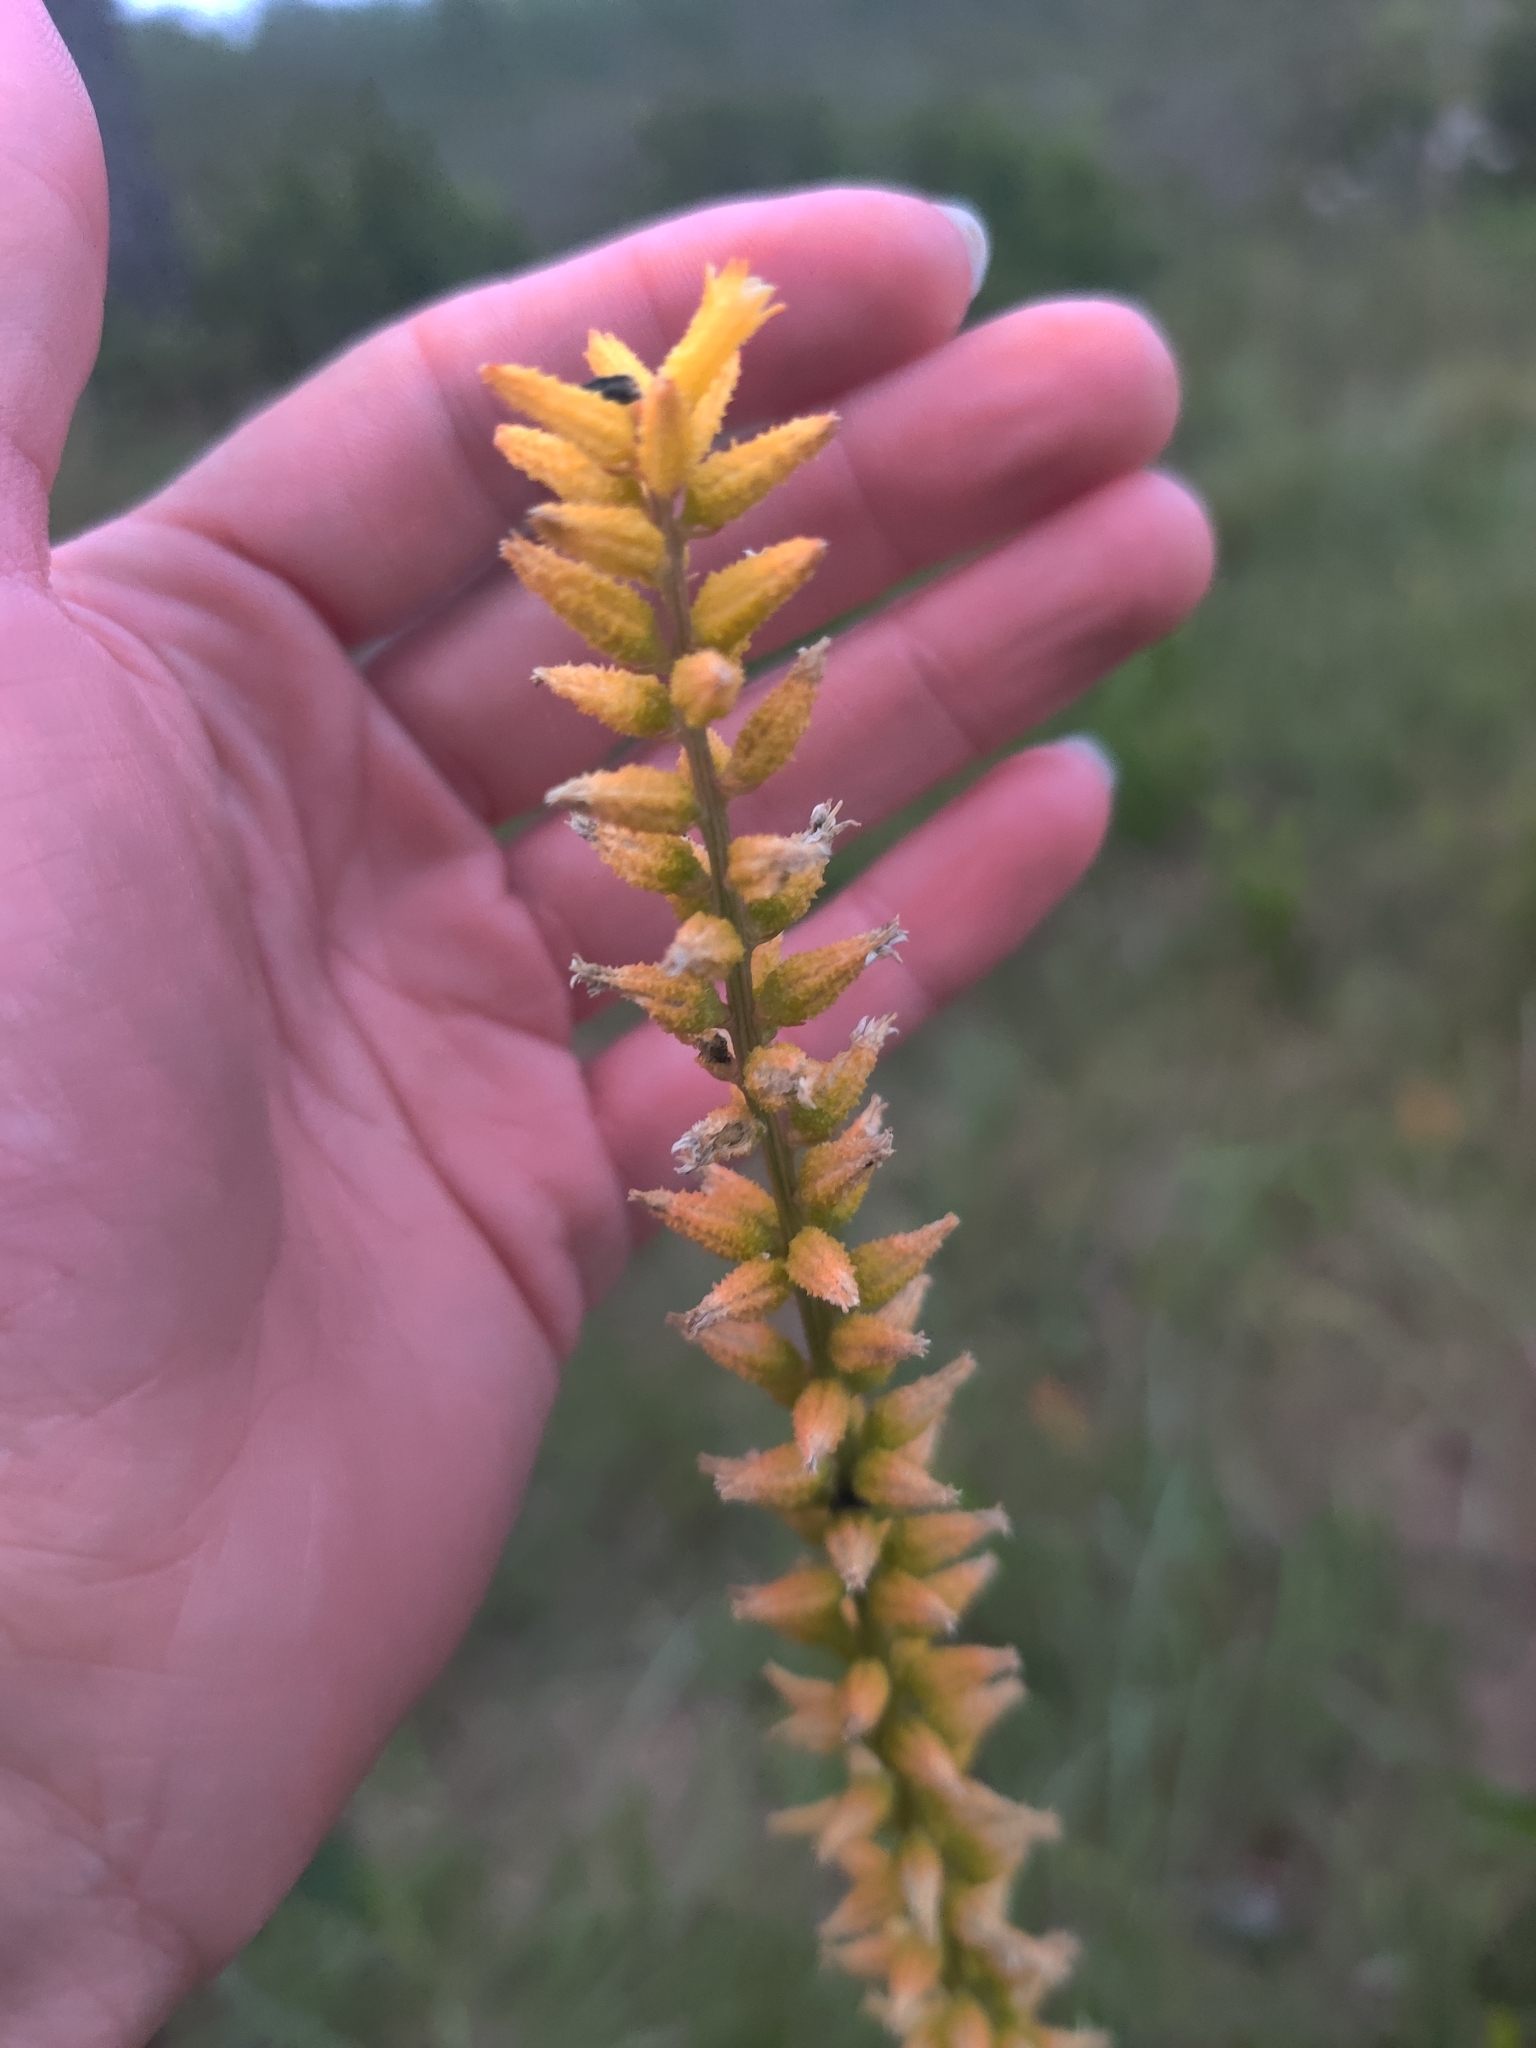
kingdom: Plantae
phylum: Tracheophyta
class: Liliopsida
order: Dioscoreales
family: Nartheciaceae
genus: Aletris
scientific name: Aletris lutea
